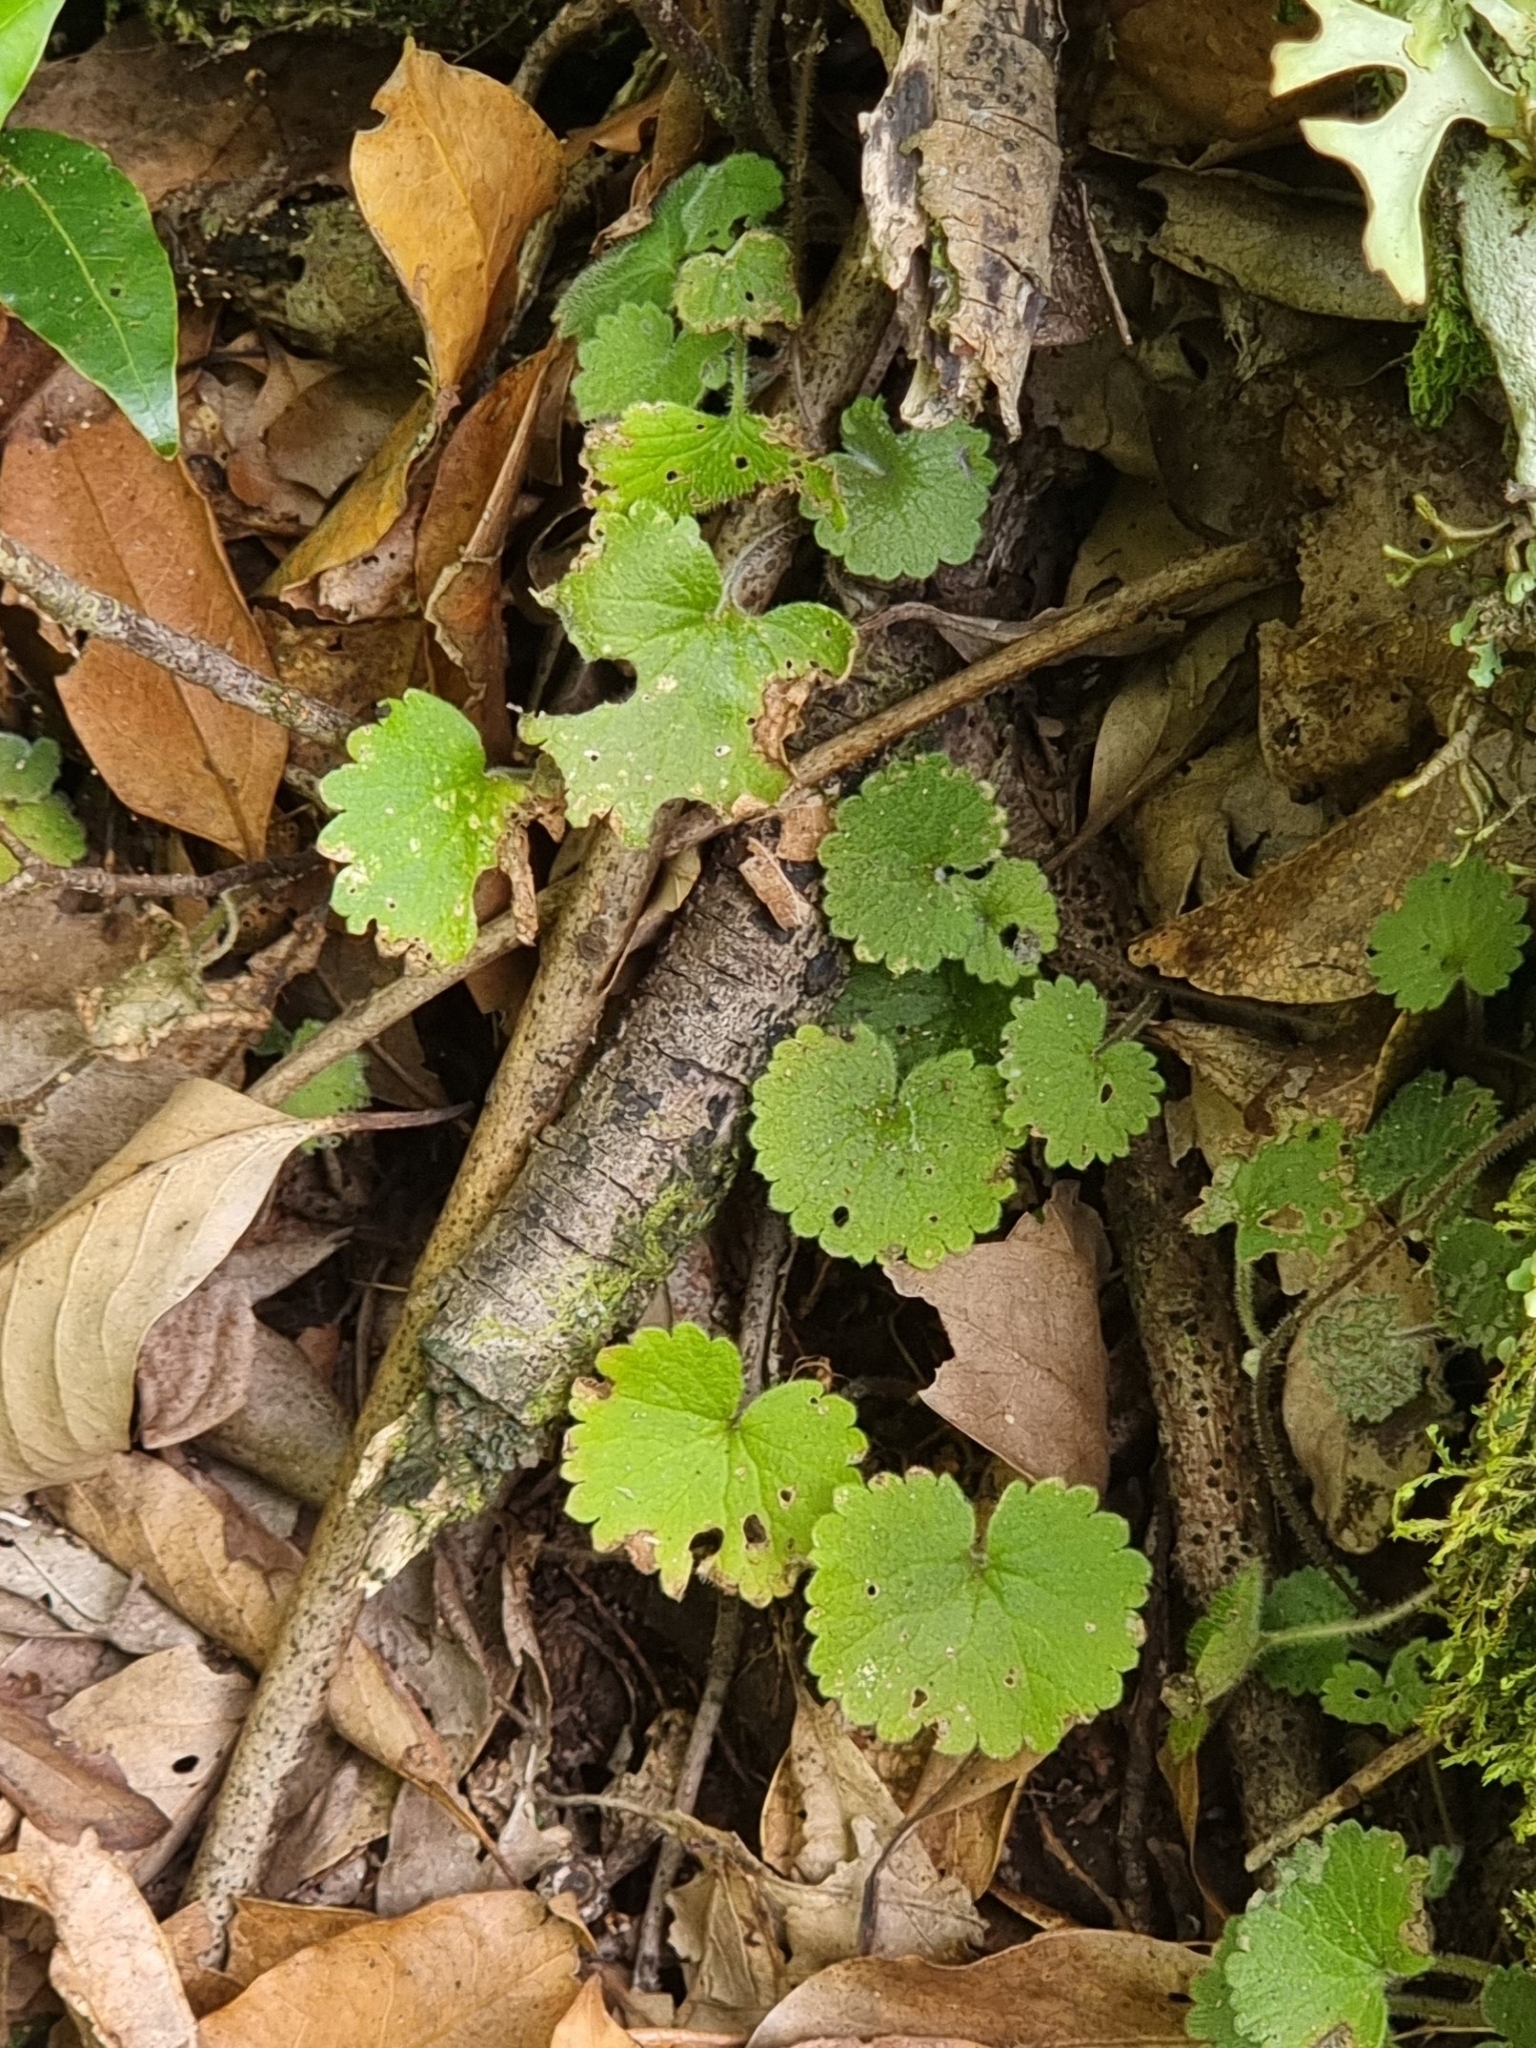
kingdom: Plantae
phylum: Tracheophyta
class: Magnoliopsida
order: Lamiales
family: Plantaginaceae
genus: Sibthorpia
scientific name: Sibthorpia peregrina
